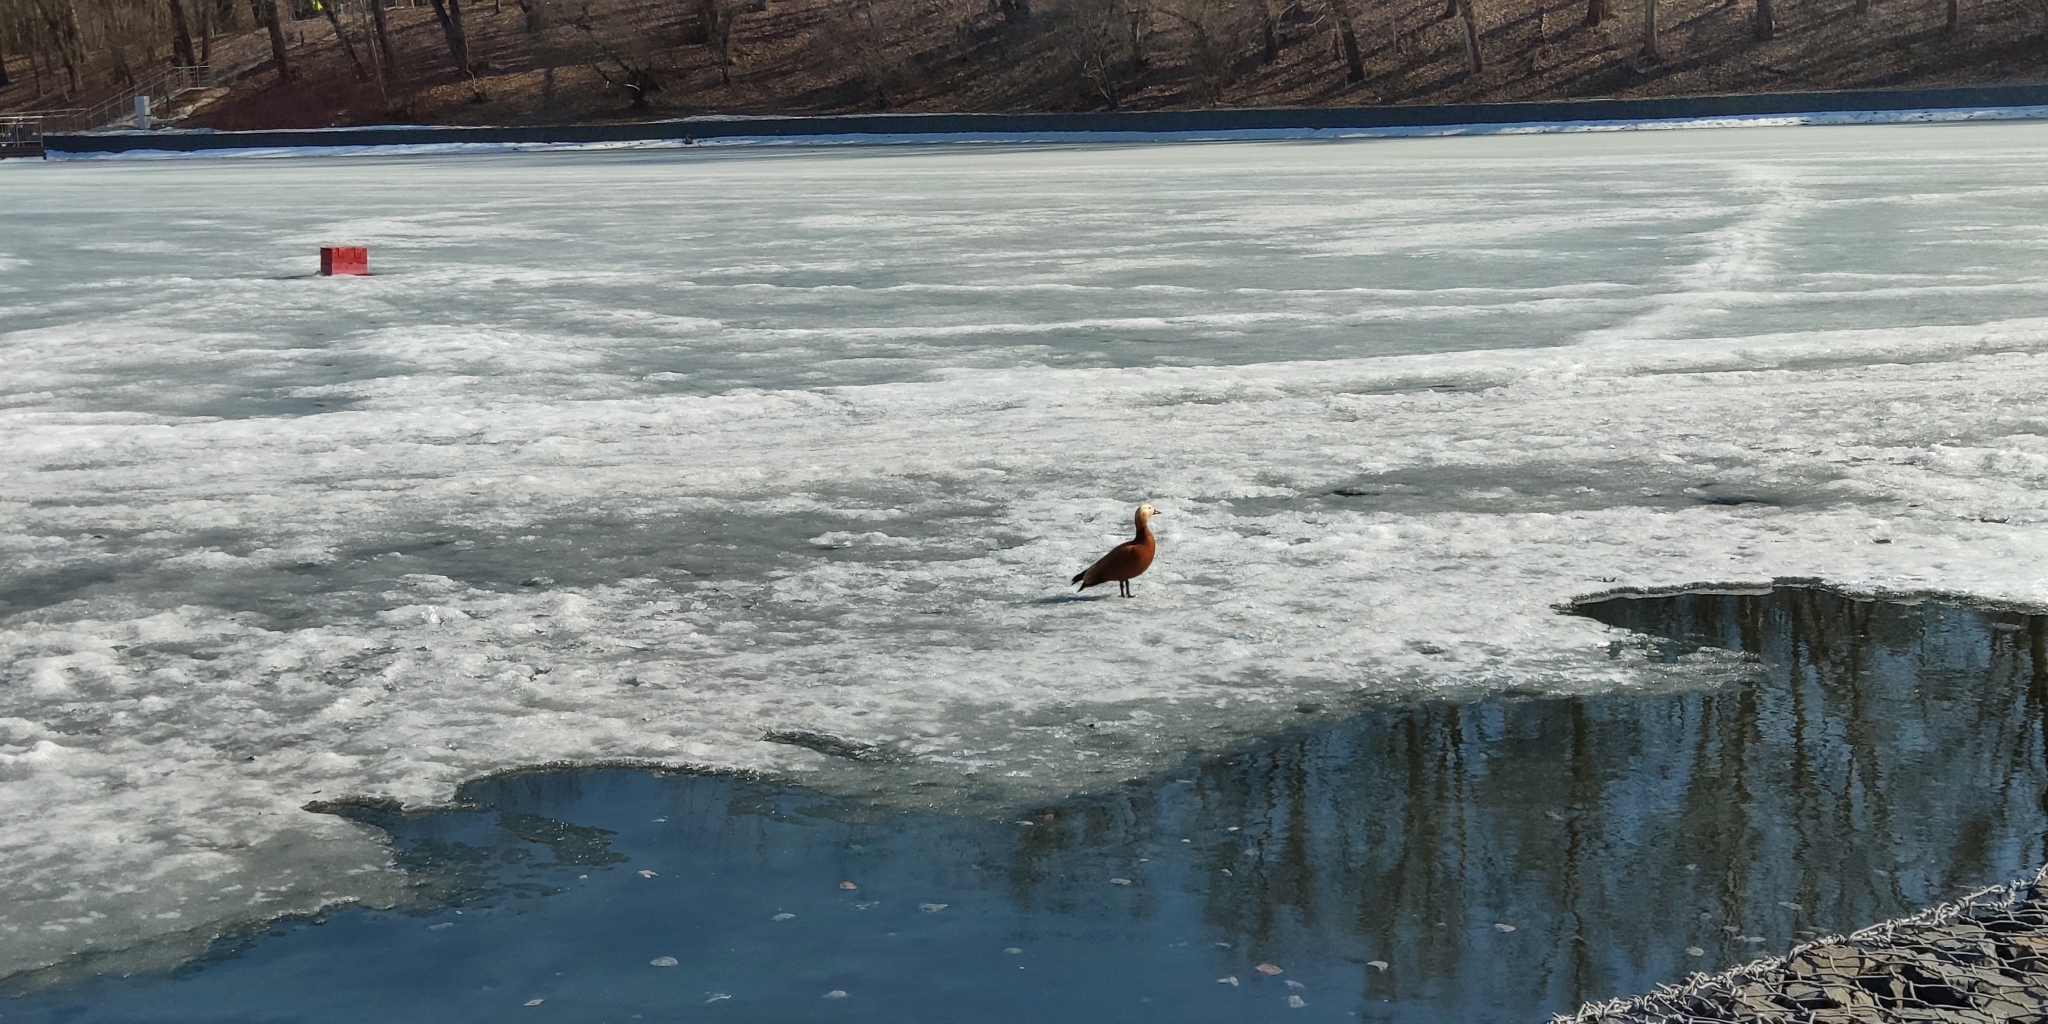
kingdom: Animalia
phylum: Chordata
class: Aves
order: Anseriformes
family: Anatidae
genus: Tadorna
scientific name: Tadorna ferruginea
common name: Ruddy shelduck
